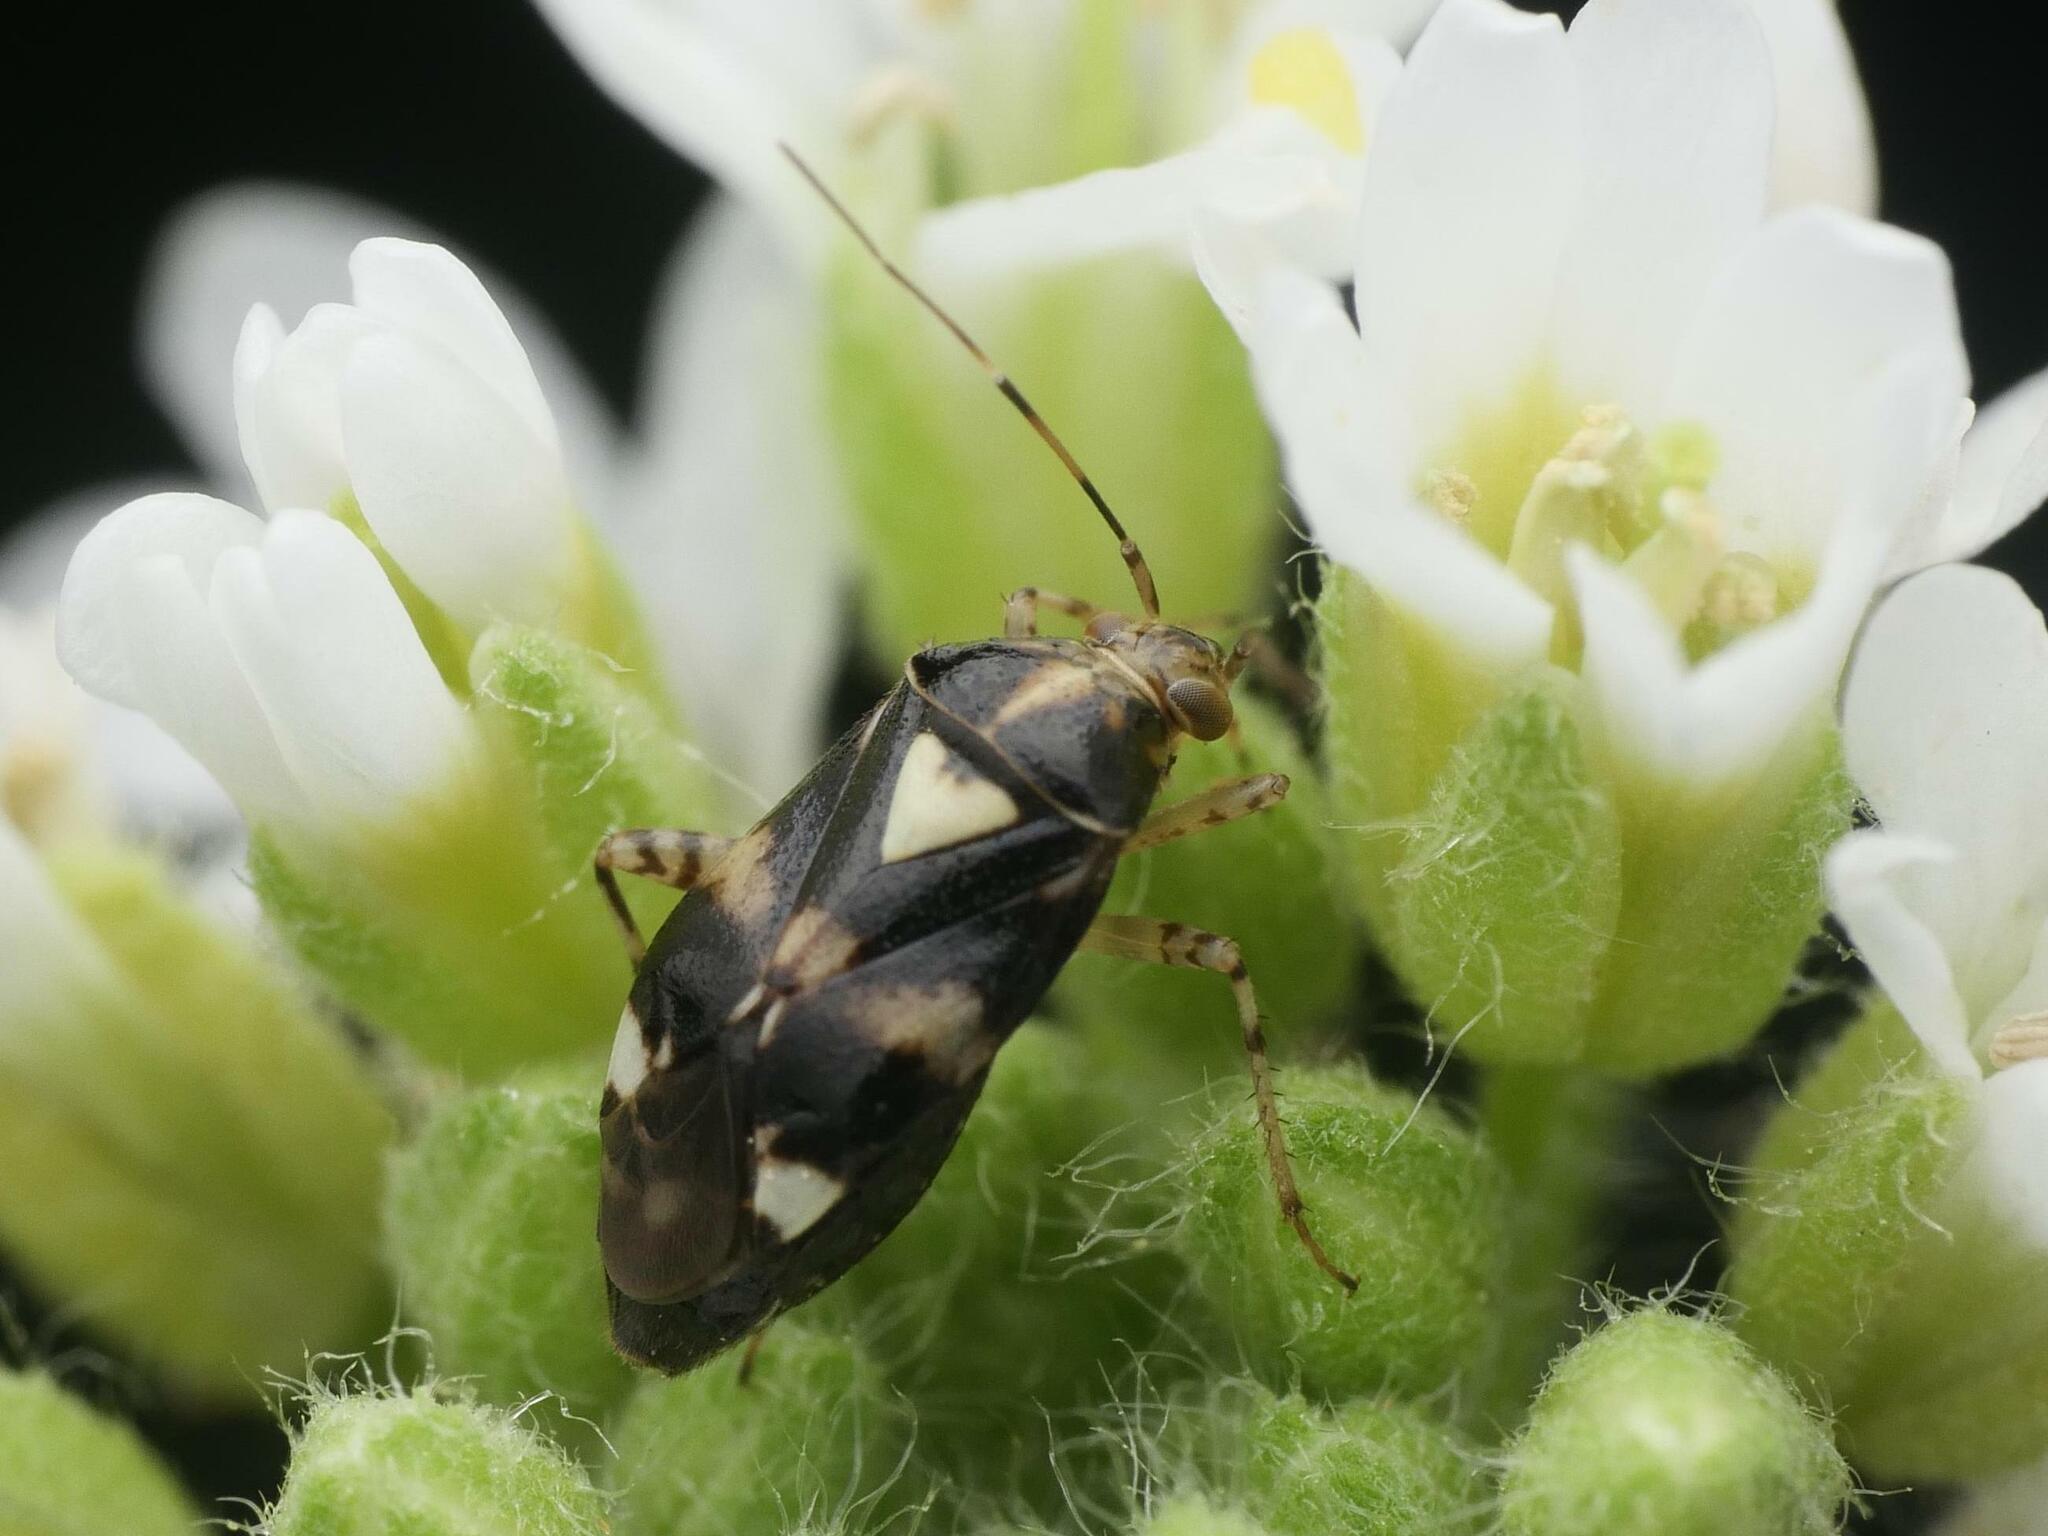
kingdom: Animalia
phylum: Arthropoda
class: Insecta
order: Hemiptera
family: Miridae
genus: Liocoris
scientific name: Liocoris tripustulatus
